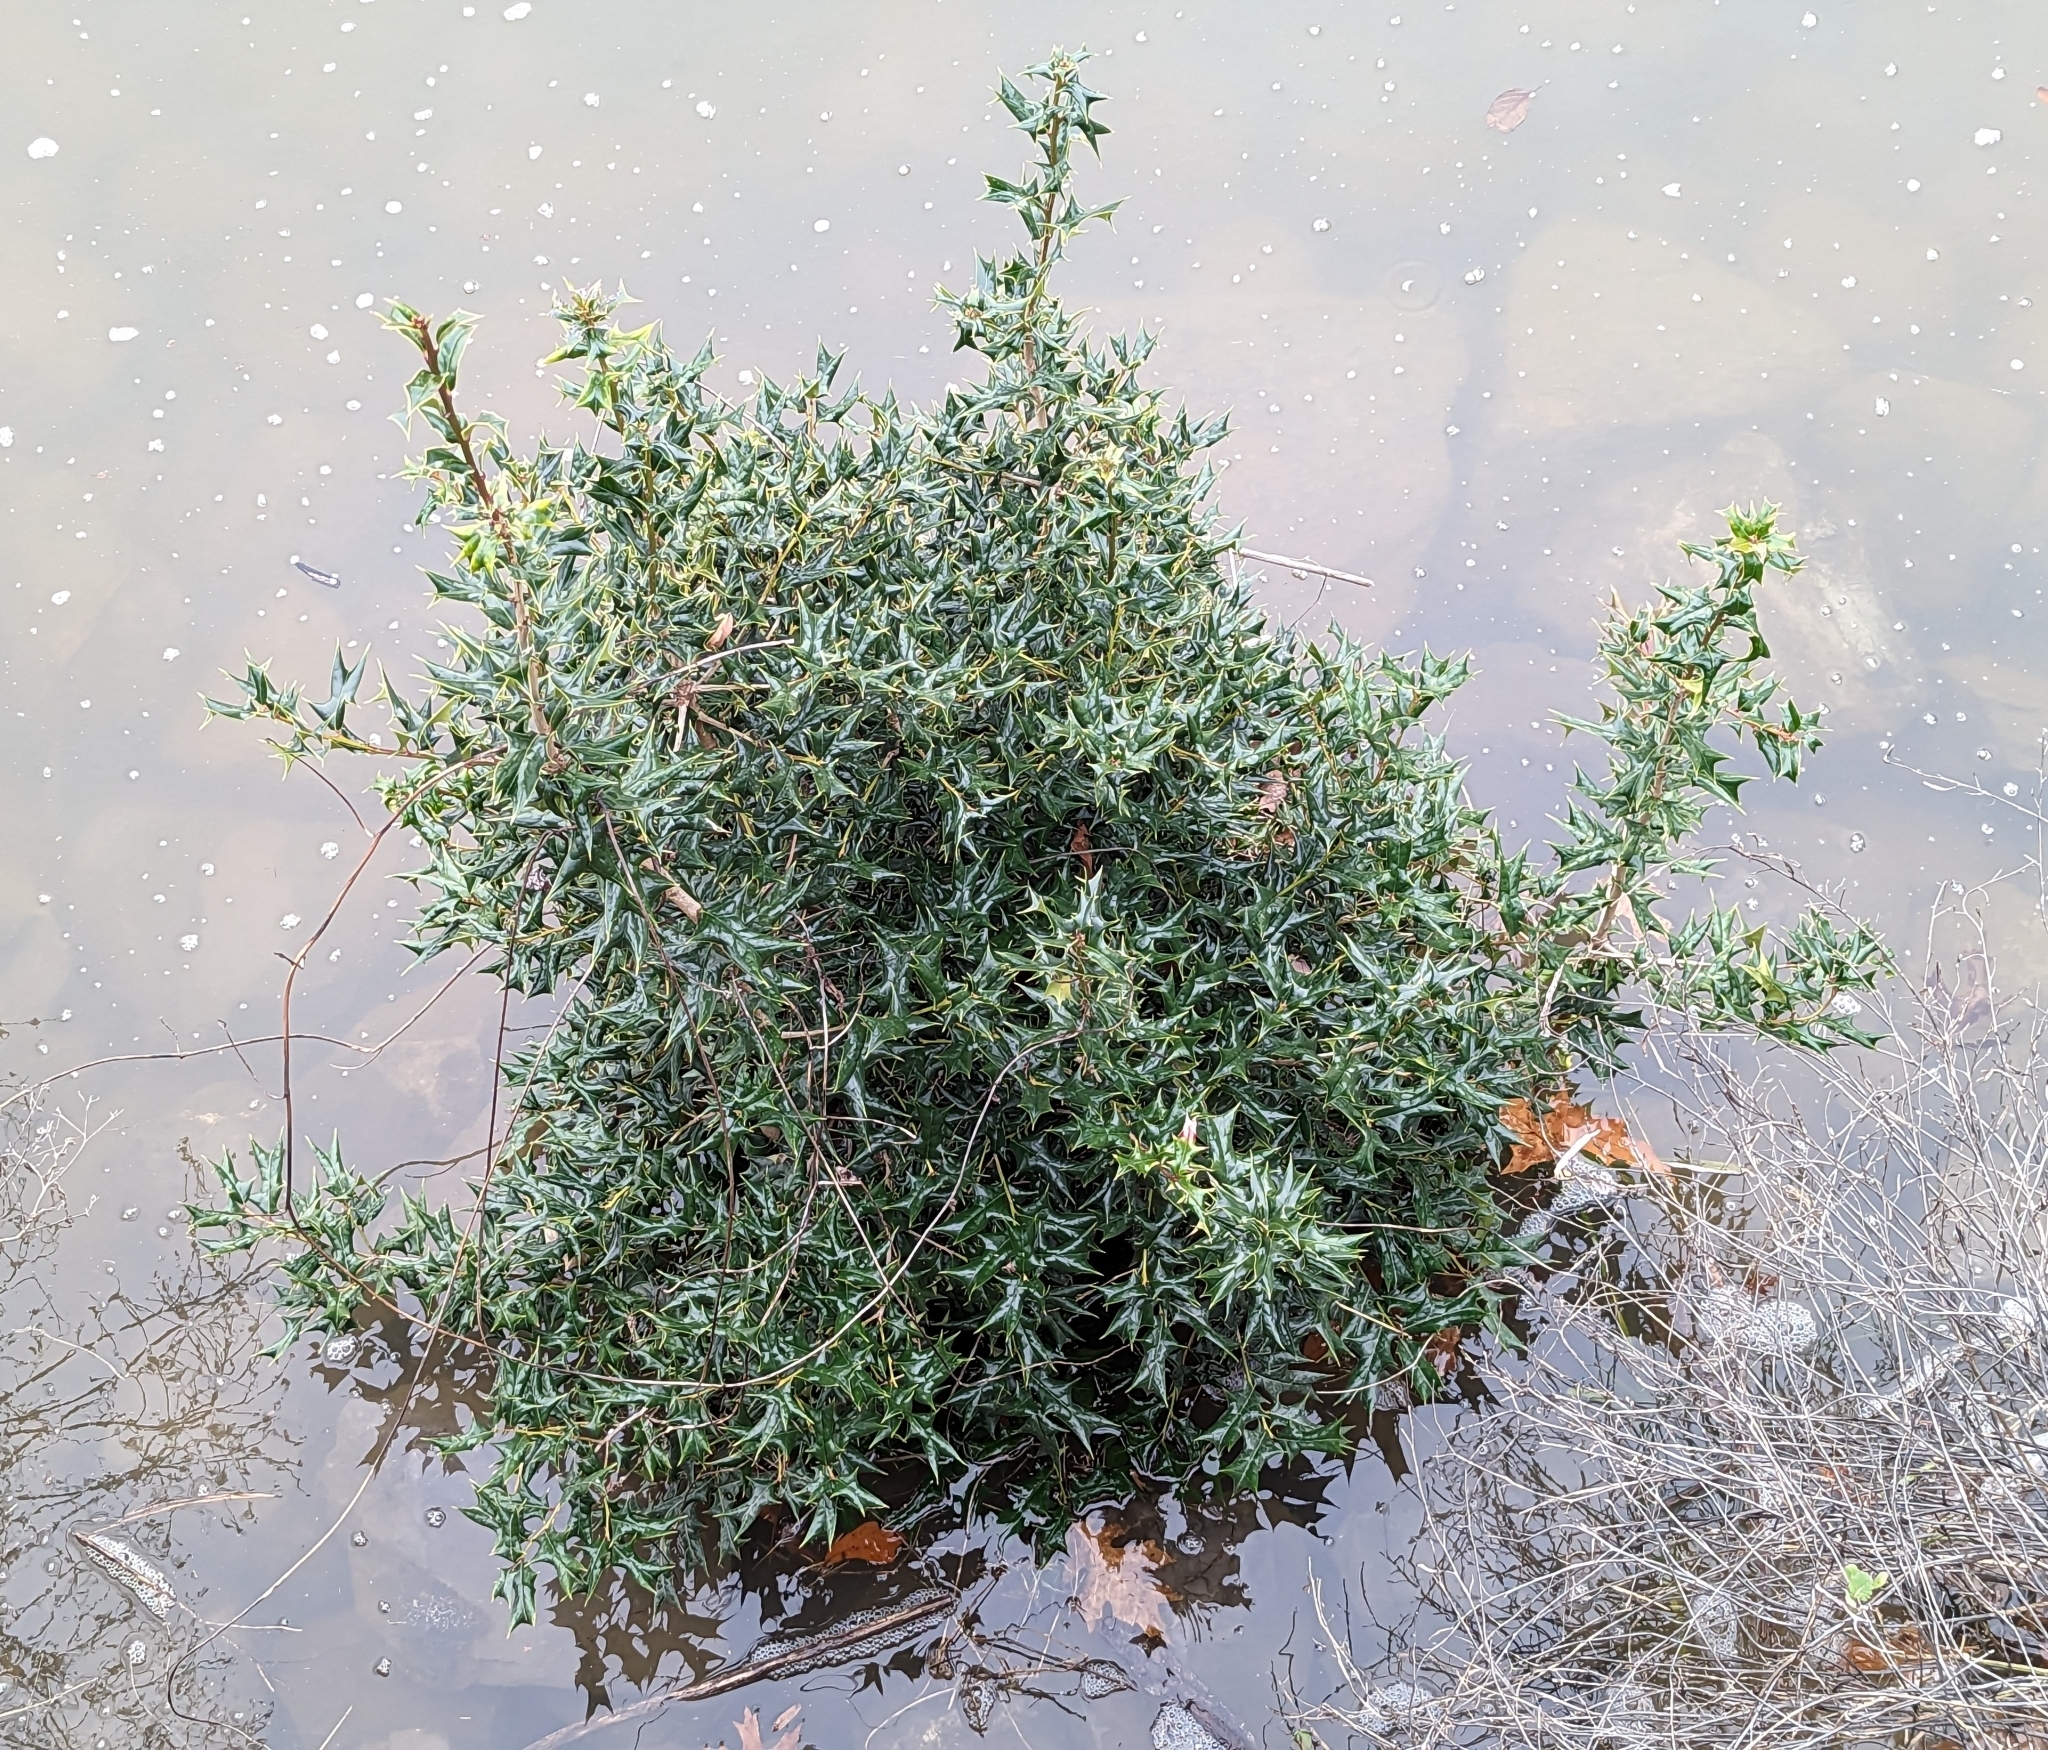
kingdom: Plantae
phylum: Tracheophyta
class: Magnoliopsida
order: Aquifoliales
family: Aquifoliaceae
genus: Ilex
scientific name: Ilex cornuta
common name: Chinese holly
